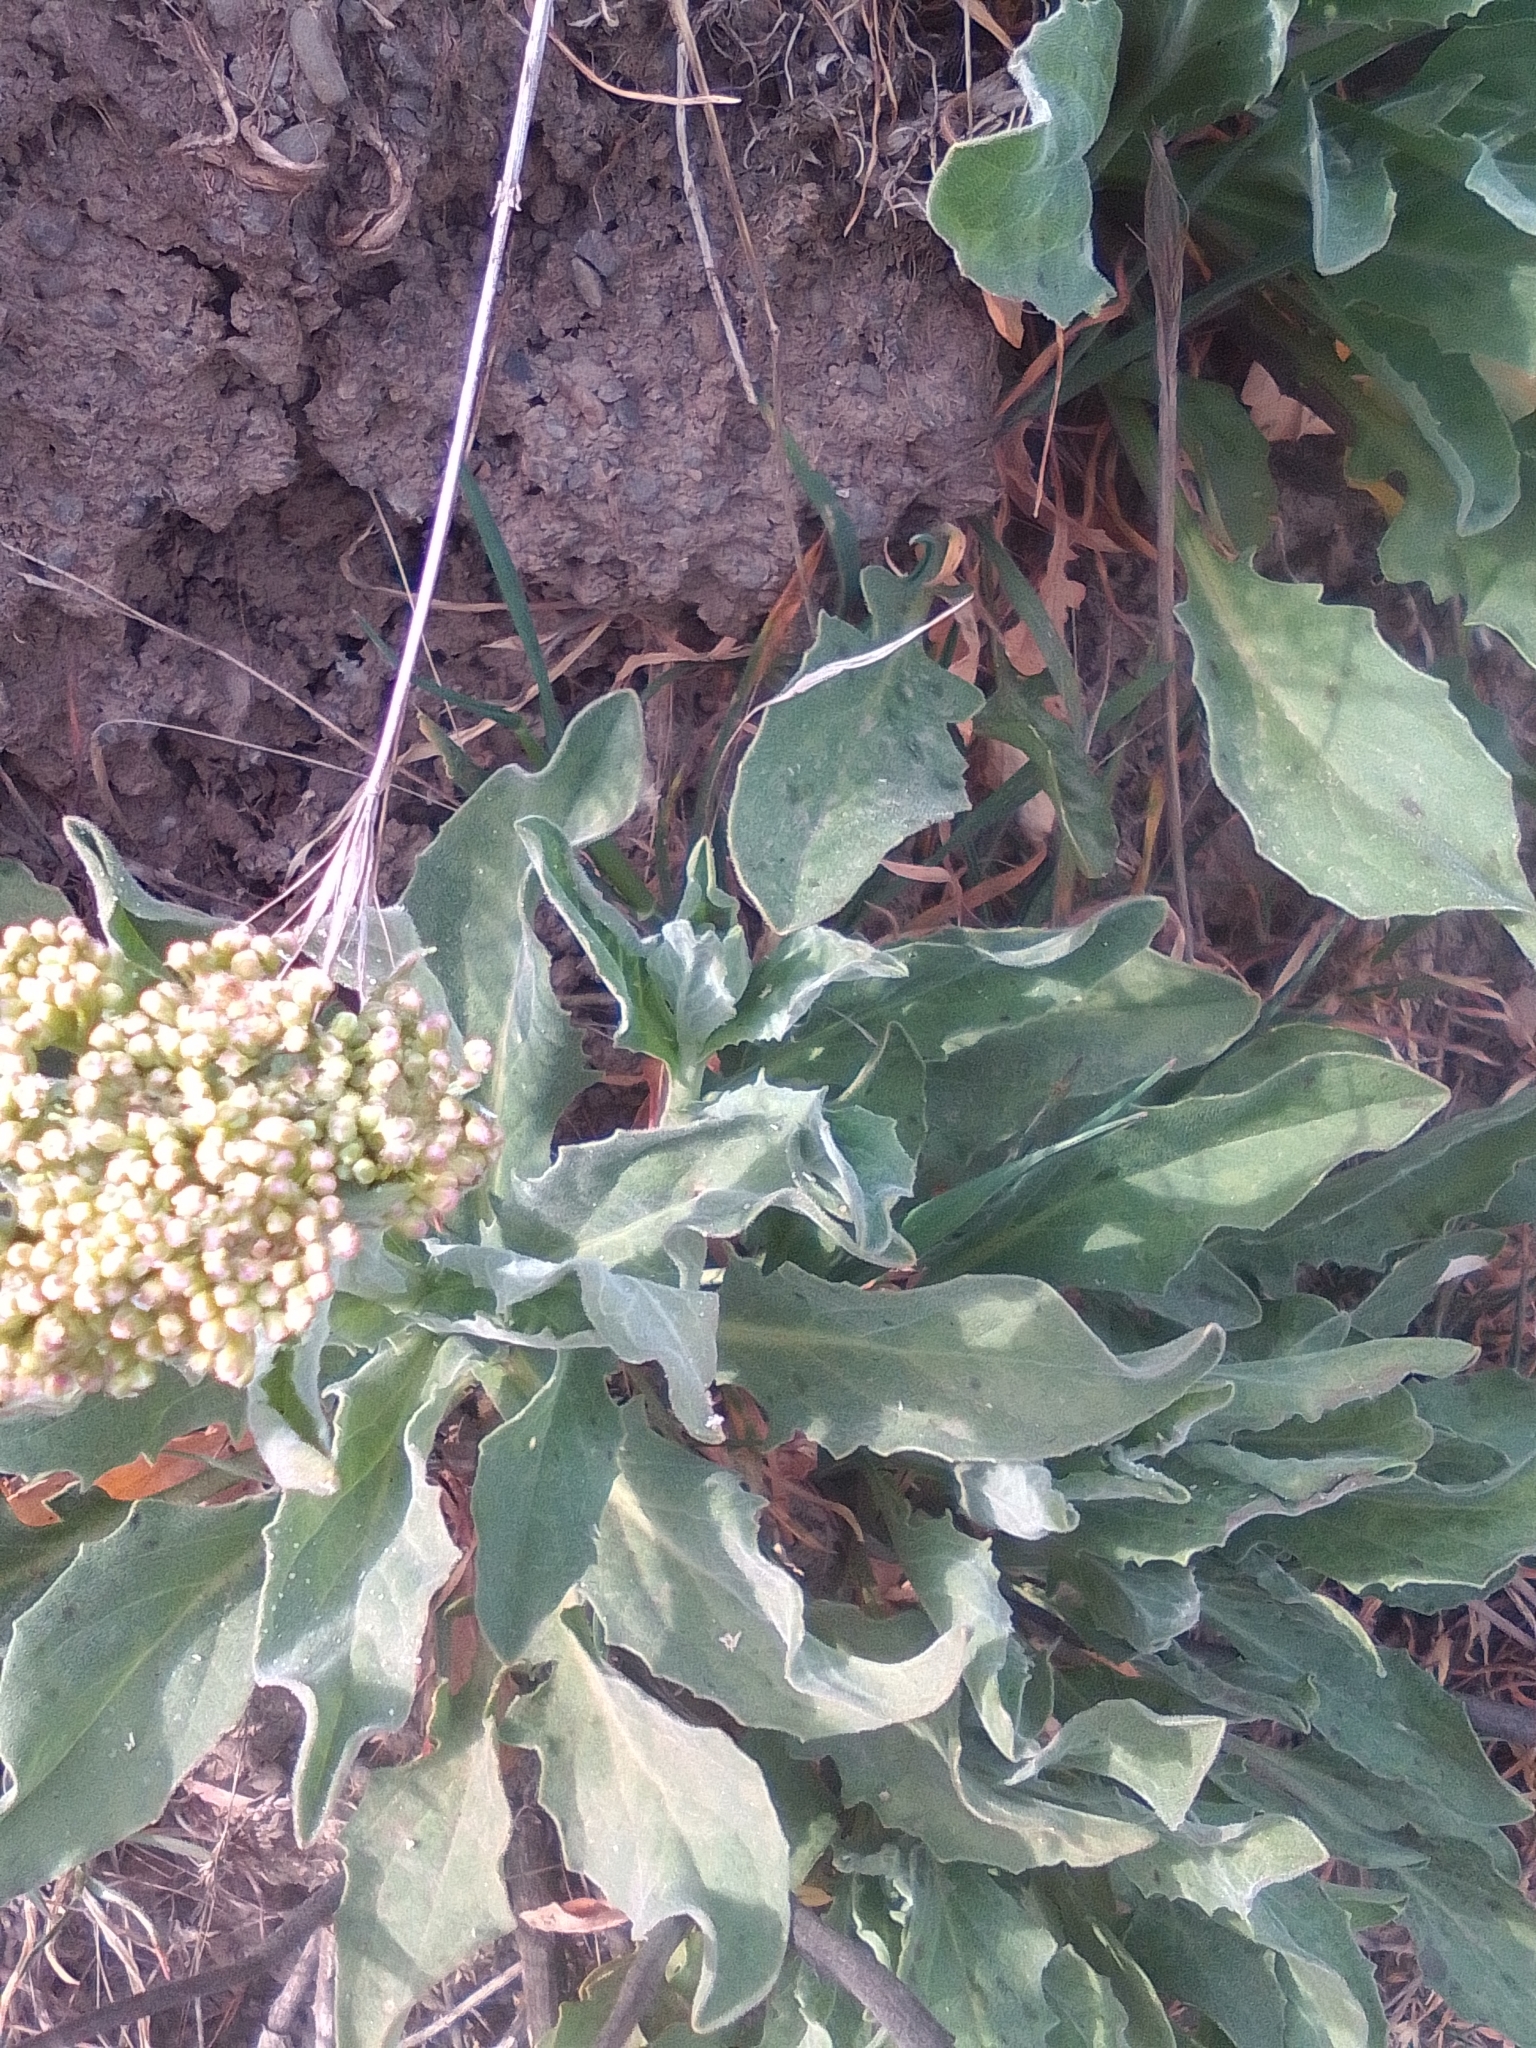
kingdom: Plantae
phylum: Tracheophyta
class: Magnoliopsida
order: Brassicales
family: Brassicaceae
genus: Lepidium
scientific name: Lepidium draba
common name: Hoary cress
